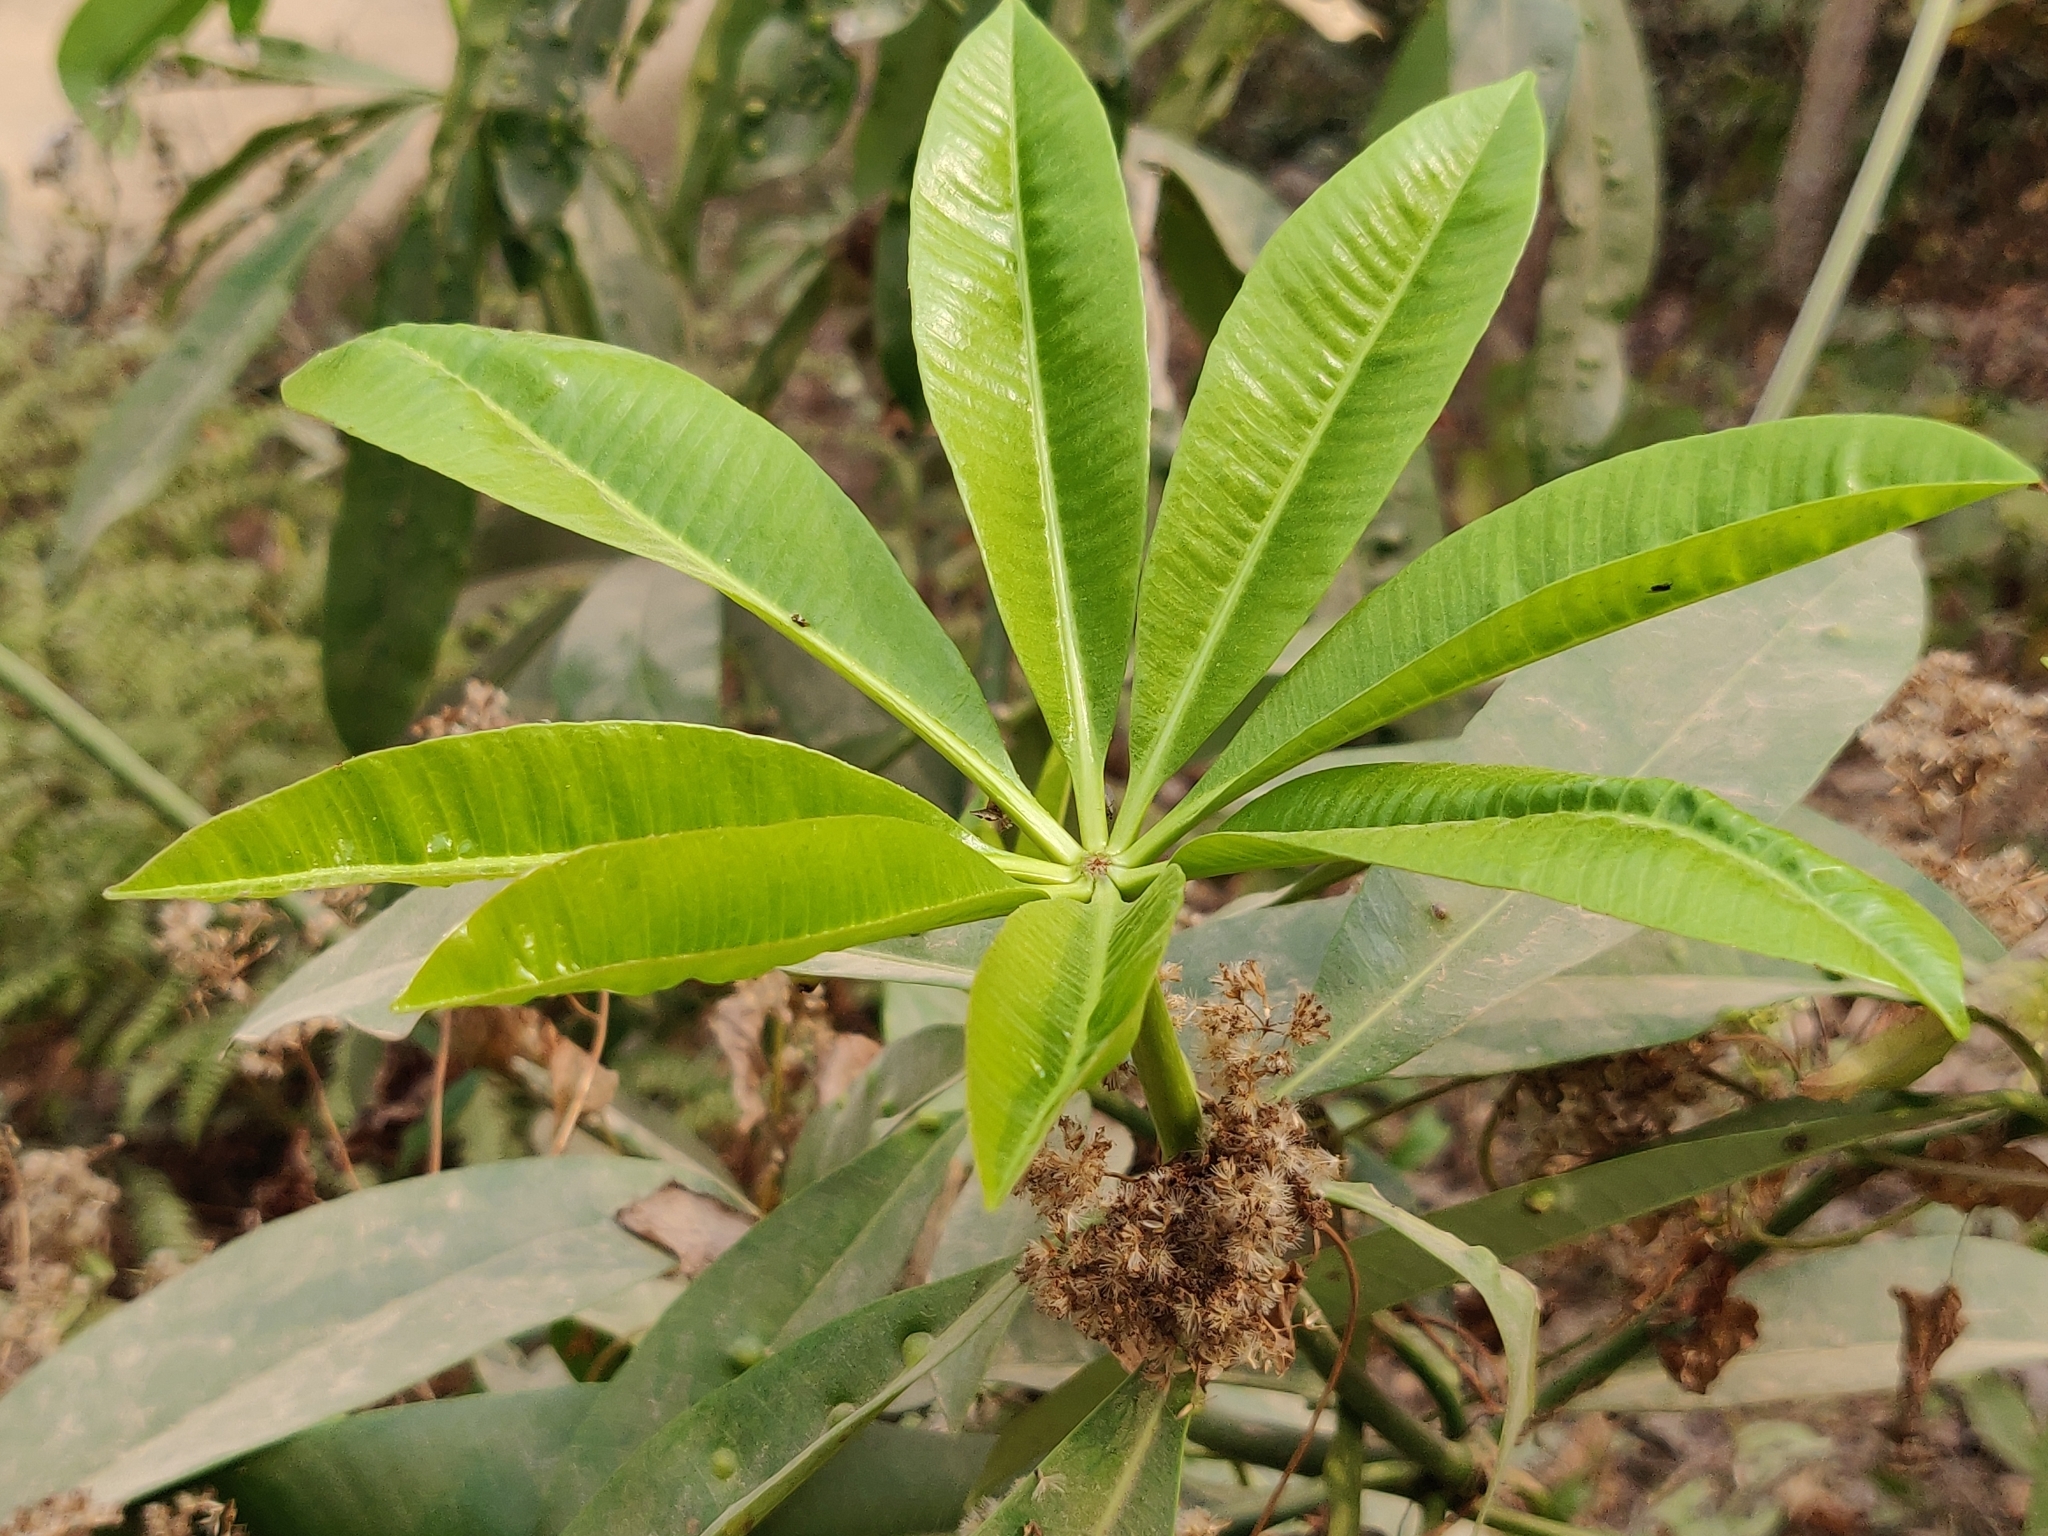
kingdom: Plantae
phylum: Tracheophyta
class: Magnoliopsida
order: Gentianales
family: Apocynaceae
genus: Alstonia
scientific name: Alstonia scholaris
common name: White cheesewood
